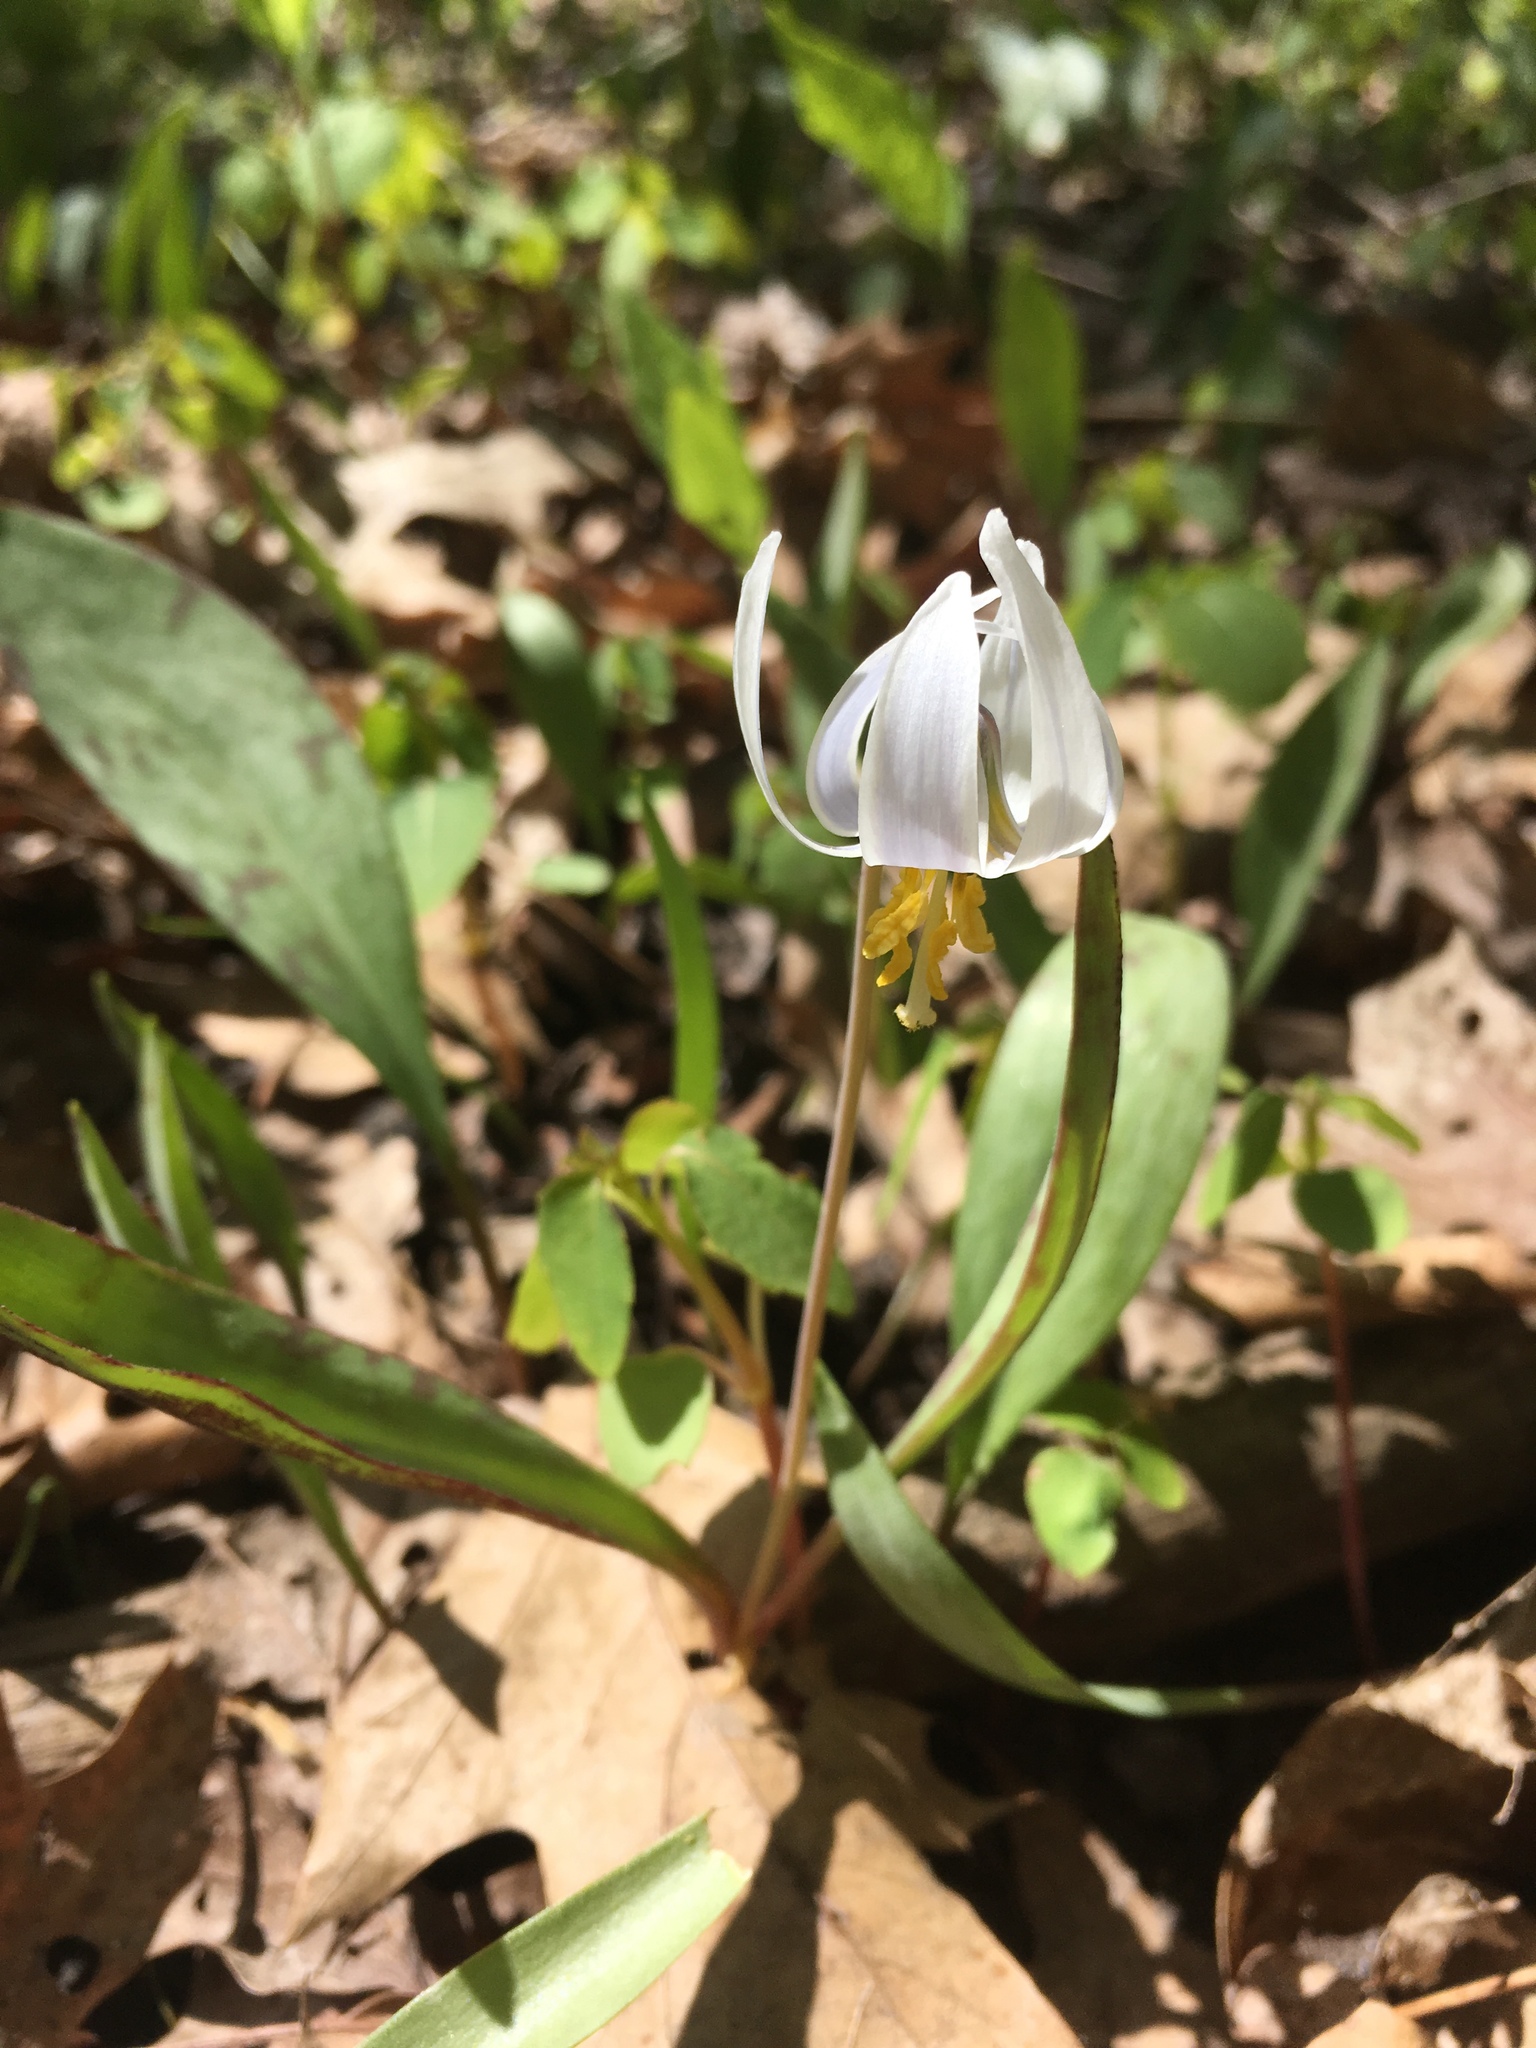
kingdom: Plantae
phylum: Tracheophyta
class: Liliopsida
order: Liliales
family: Liliaceae
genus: Erythronium
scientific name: Erythronium albidum
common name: White trout-lily
